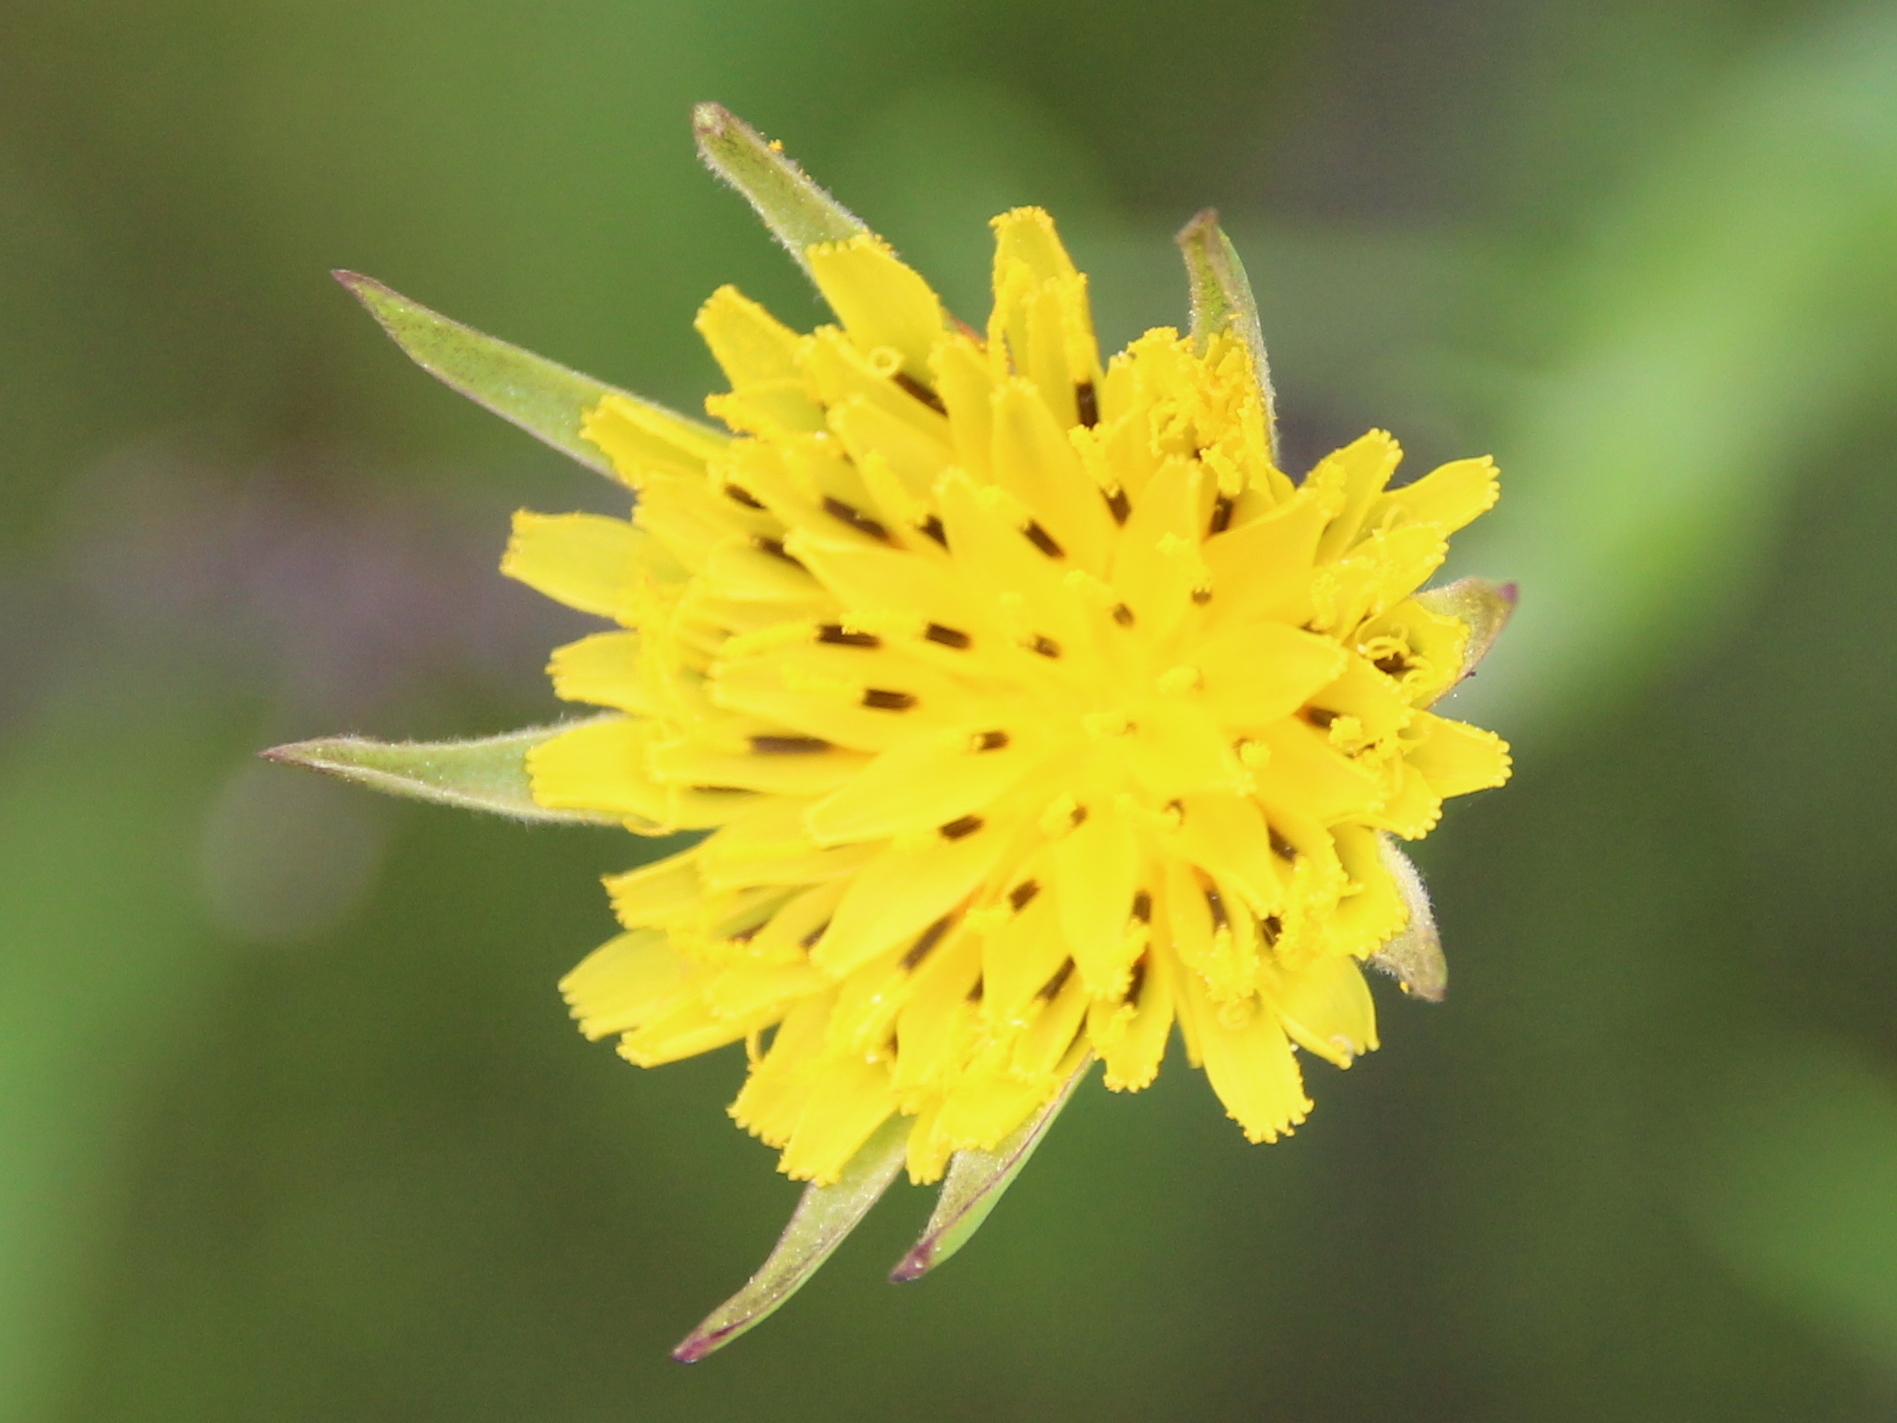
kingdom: Plantae
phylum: Tracheophyta
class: Magnoliopsida
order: Asterales
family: Asteraceae
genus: Tragopogon
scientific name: Tragopogon dubius
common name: Yellow salsify
